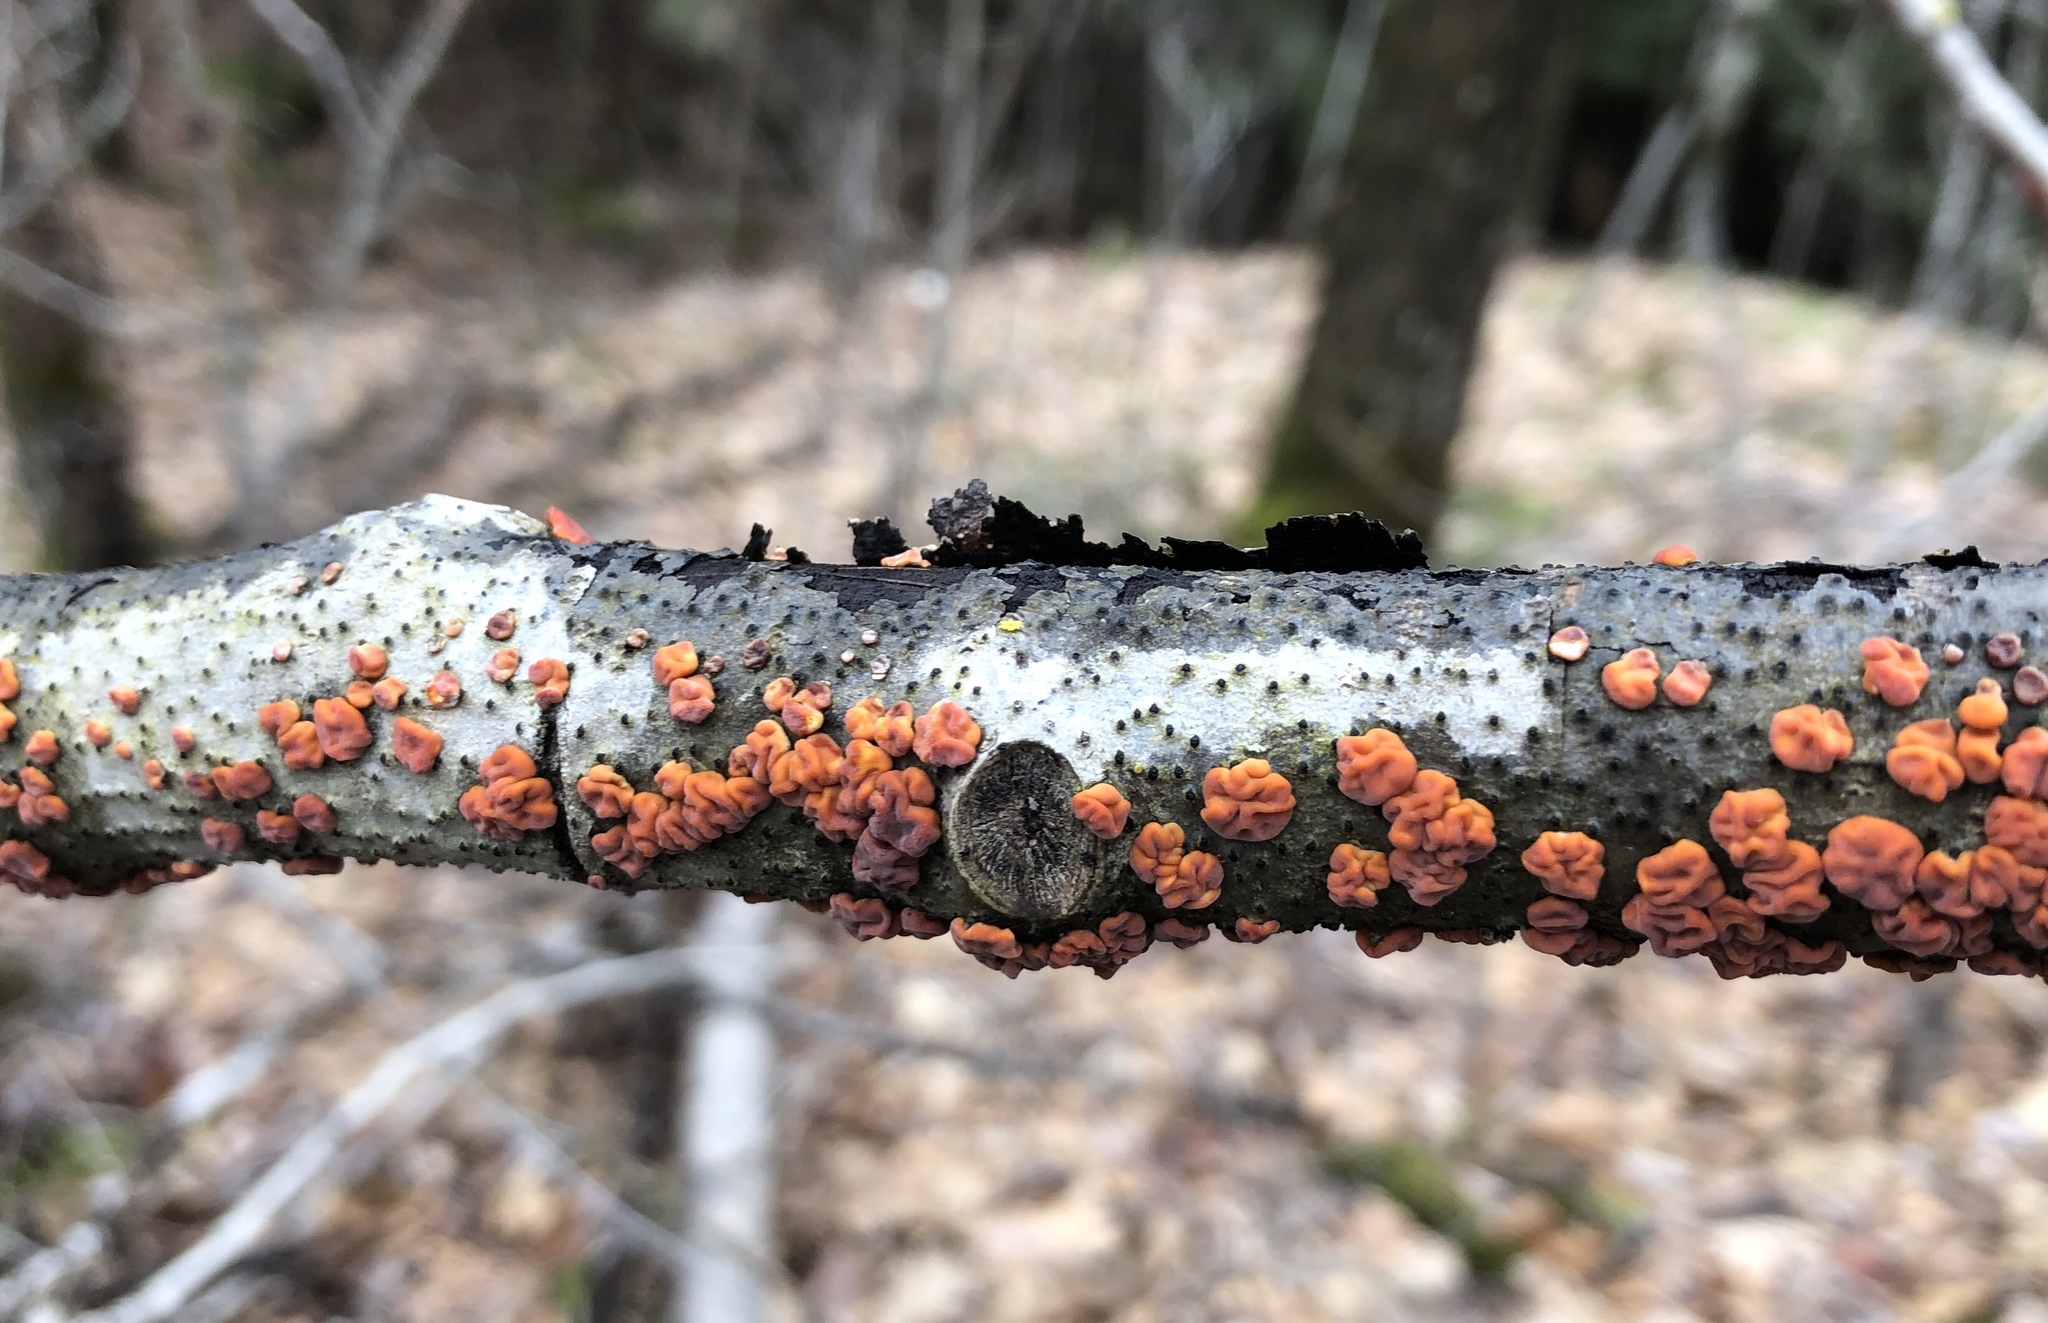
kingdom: Fungi
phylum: Basidiomycota
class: Agaricomycetes
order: Russulales
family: Peniophoraceae
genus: Peniophora
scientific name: Peniophora rufa
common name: Red tree brain fungus
